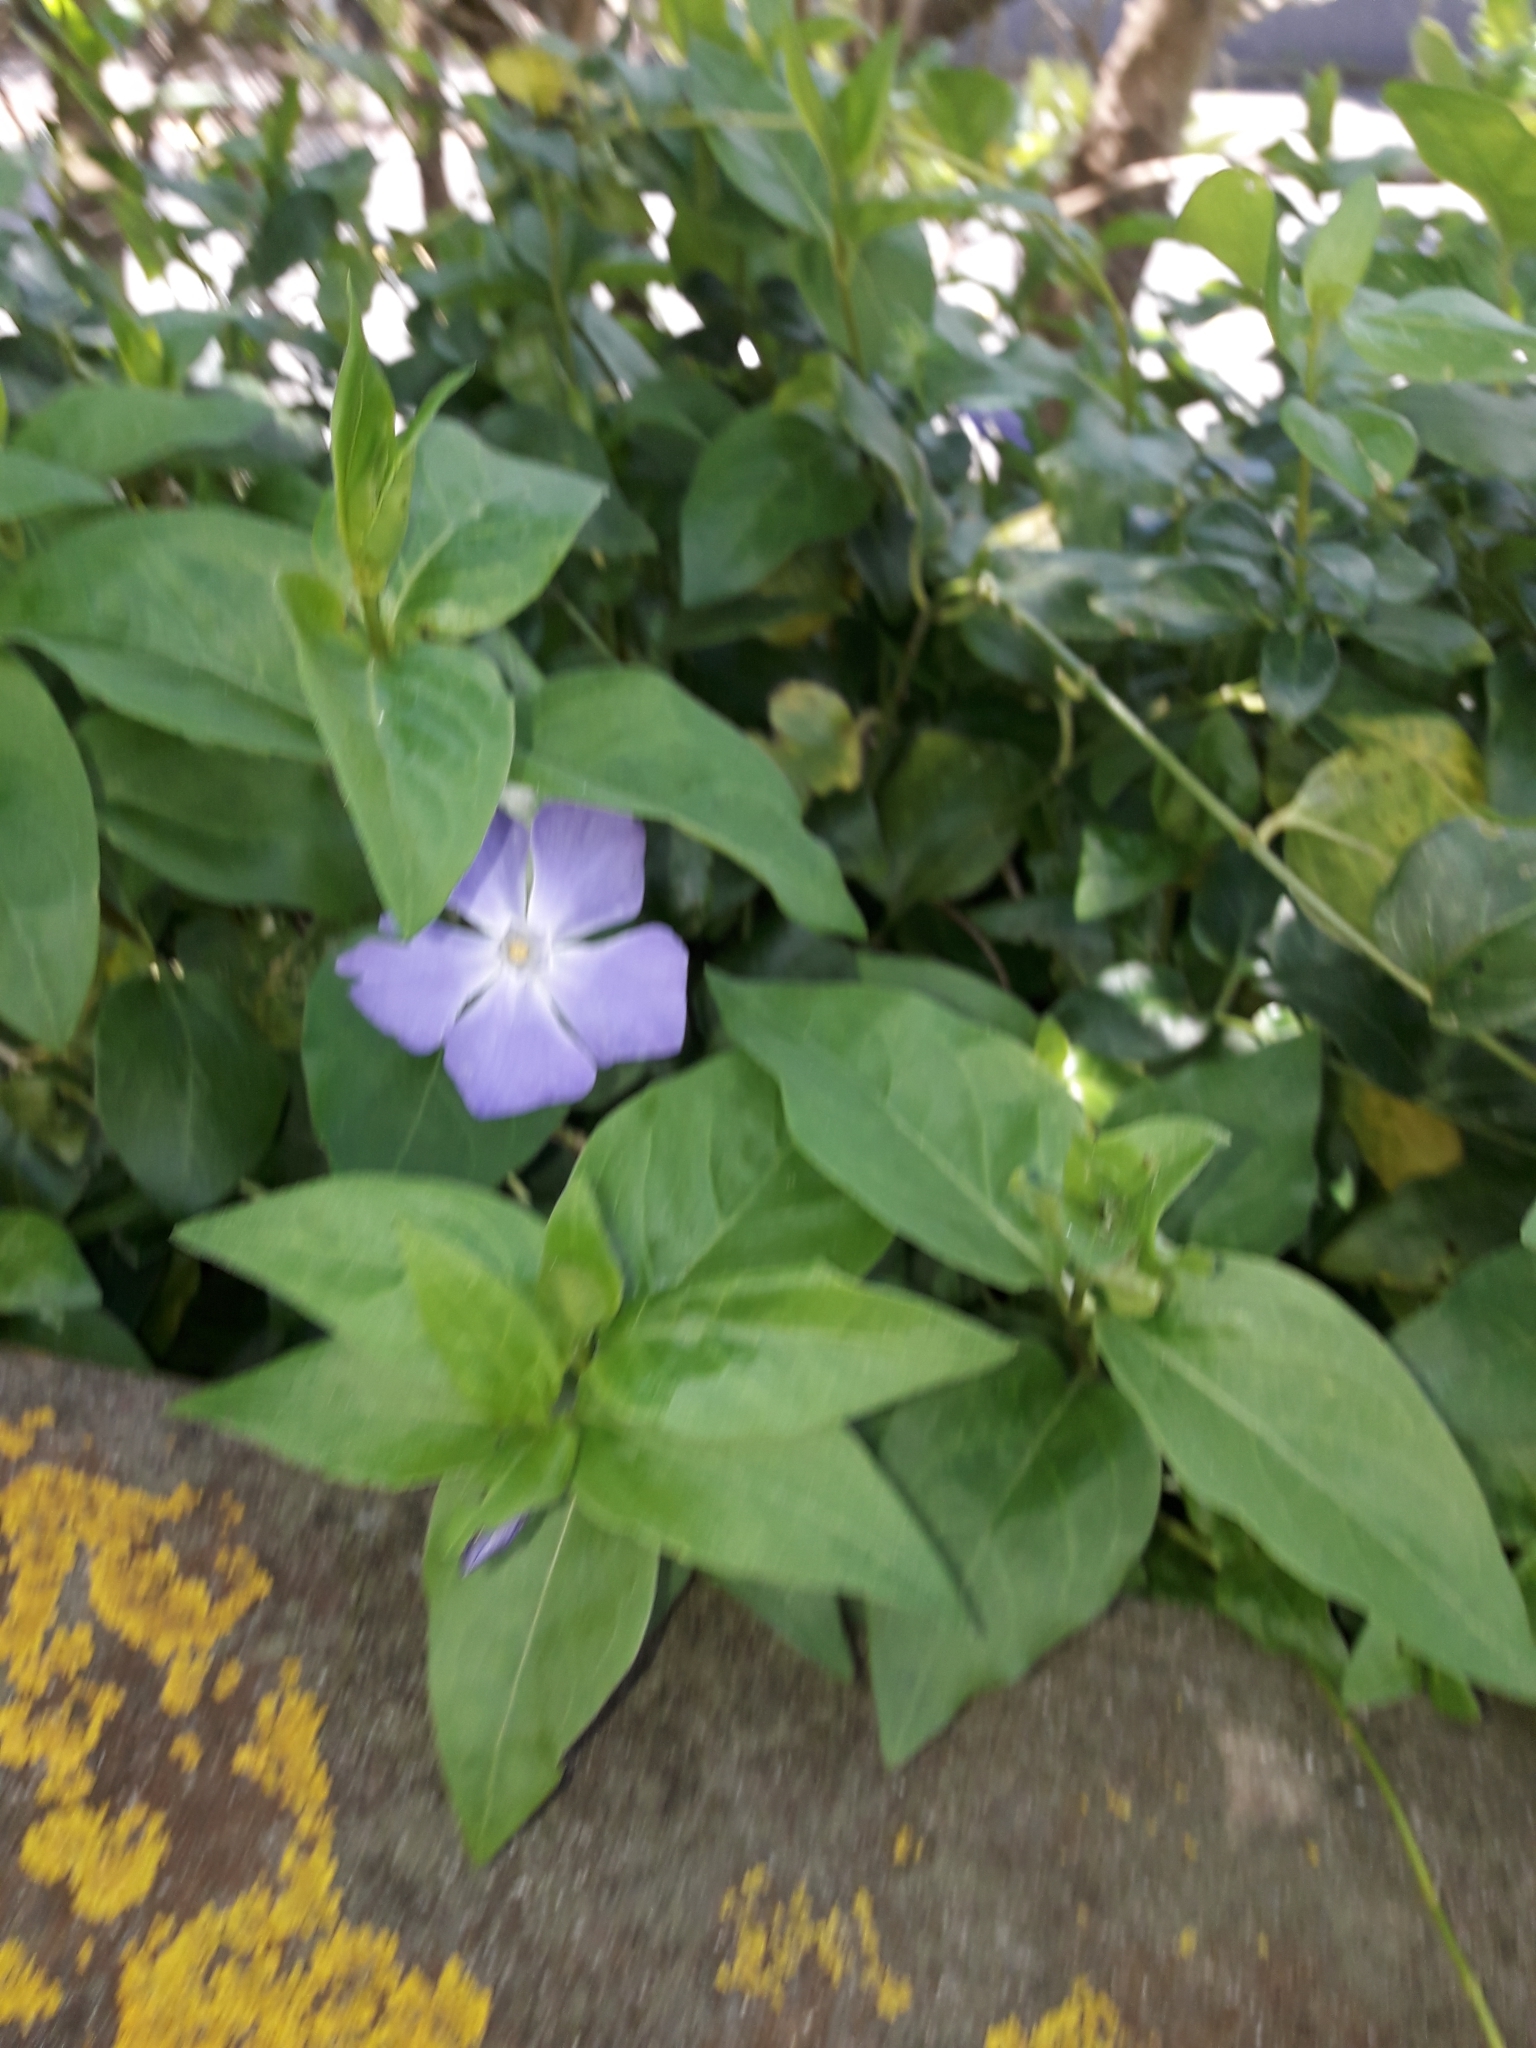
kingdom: Plantae
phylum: Tracheophyta
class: Magnoliopsida
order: Gentianales
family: Apocynaceae
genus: Vinca
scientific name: Vinca major
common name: Greater periwinkle
